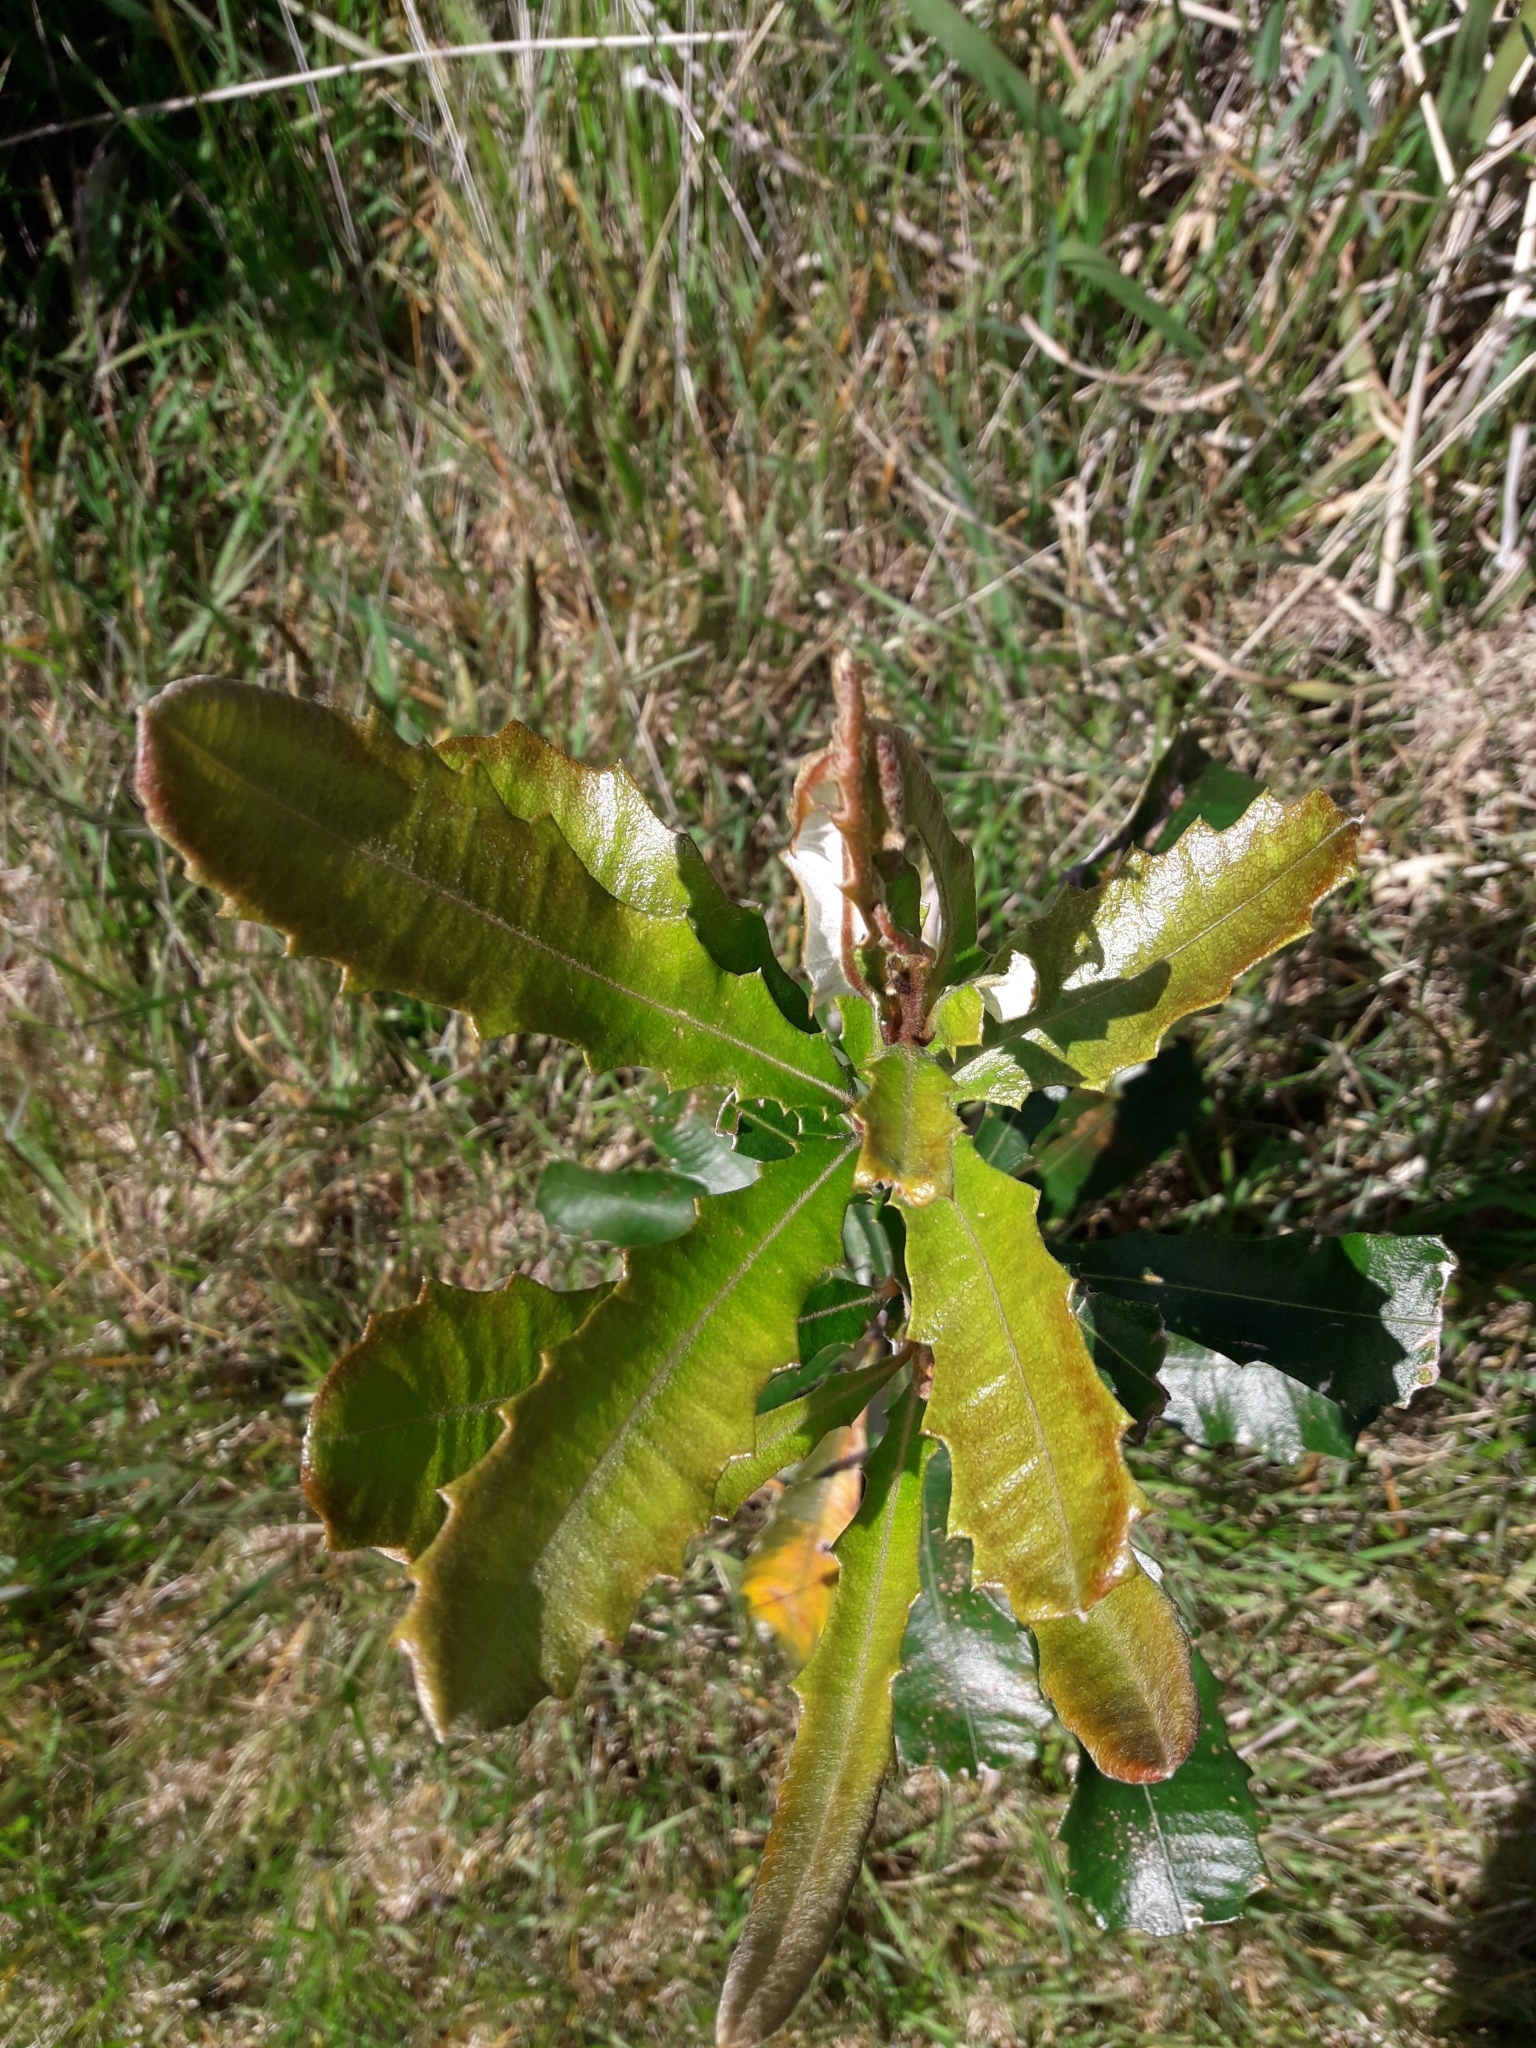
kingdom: Plantae
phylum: Tracheophyta
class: Magnoliopsida
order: Proteales
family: Proteaceae
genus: Banksia
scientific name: Banksia integrifolia
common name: White-honeysuckle
